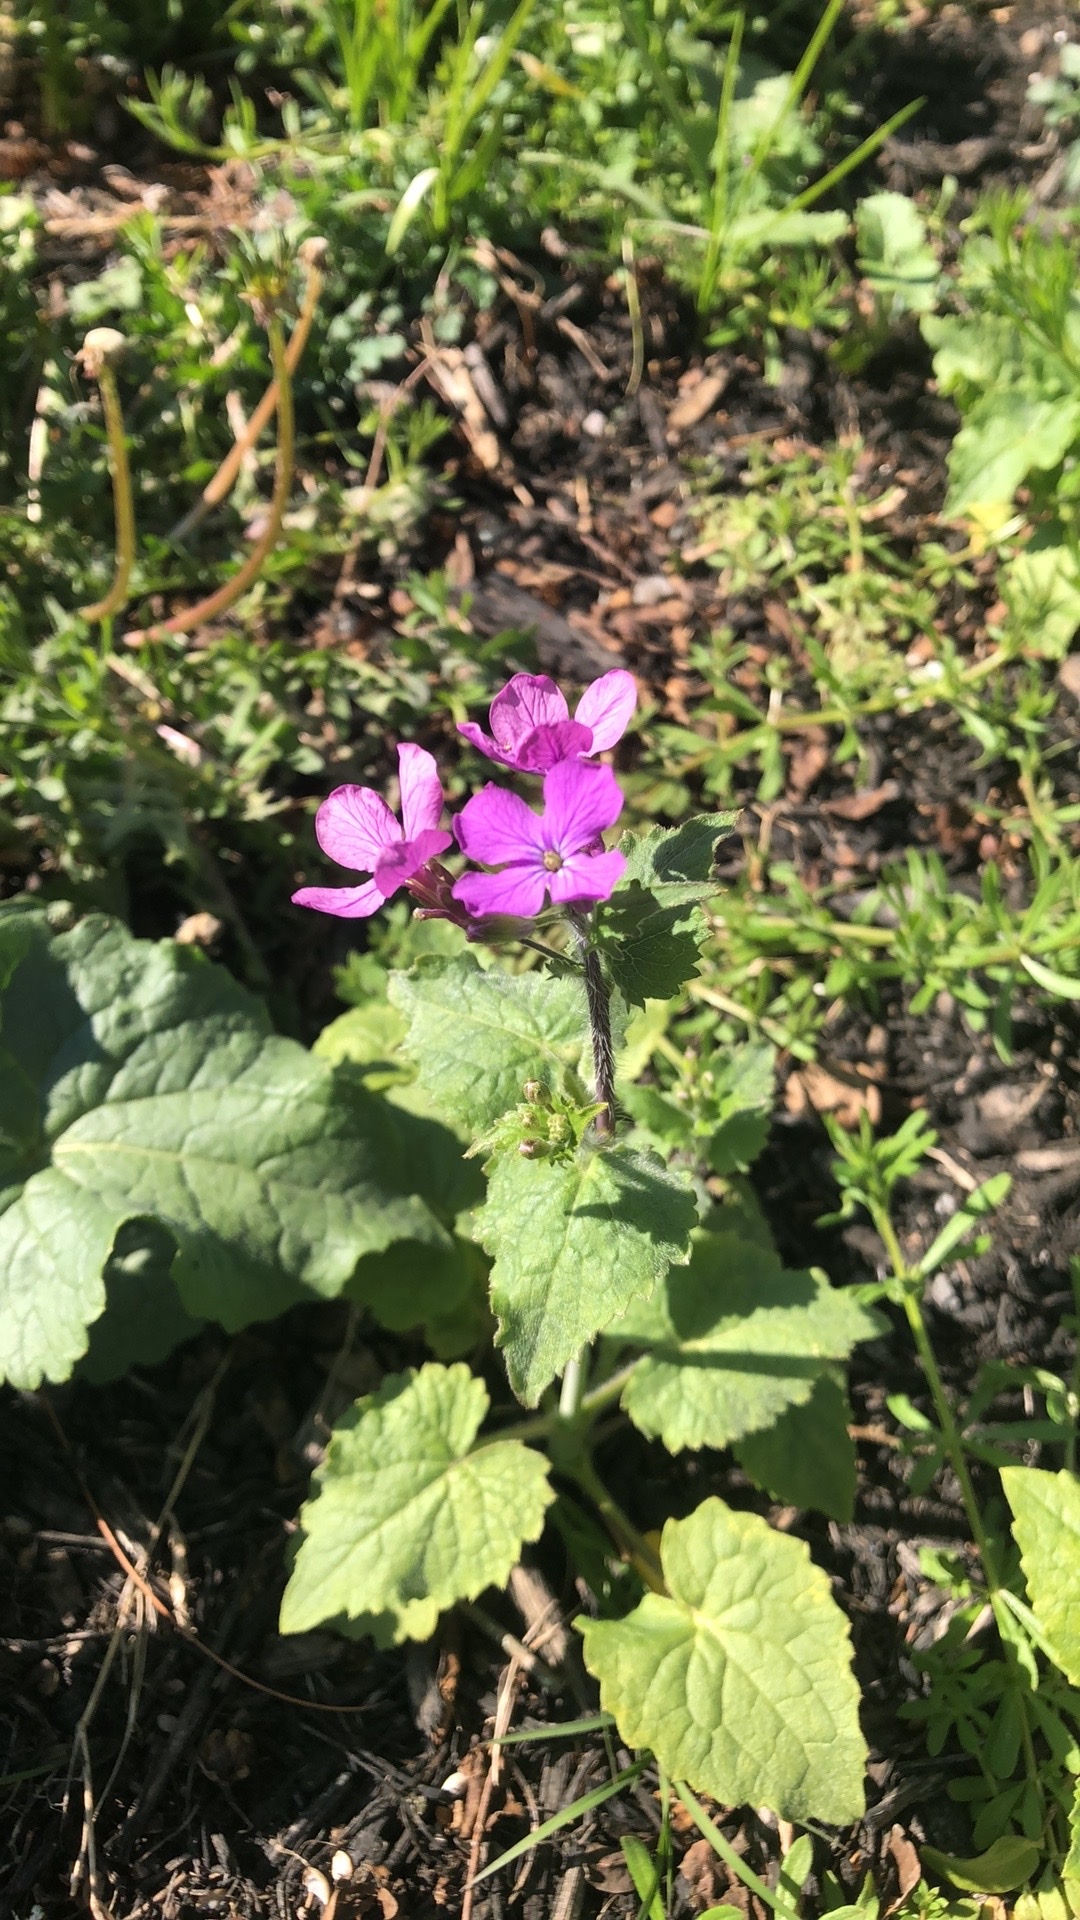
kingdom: Plantae
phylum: Tracheophyta
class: Magnoliopsida
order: Brassicales
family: Brassicaceae
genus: Lunaria
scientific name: Lunaria annua
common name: Honesty
